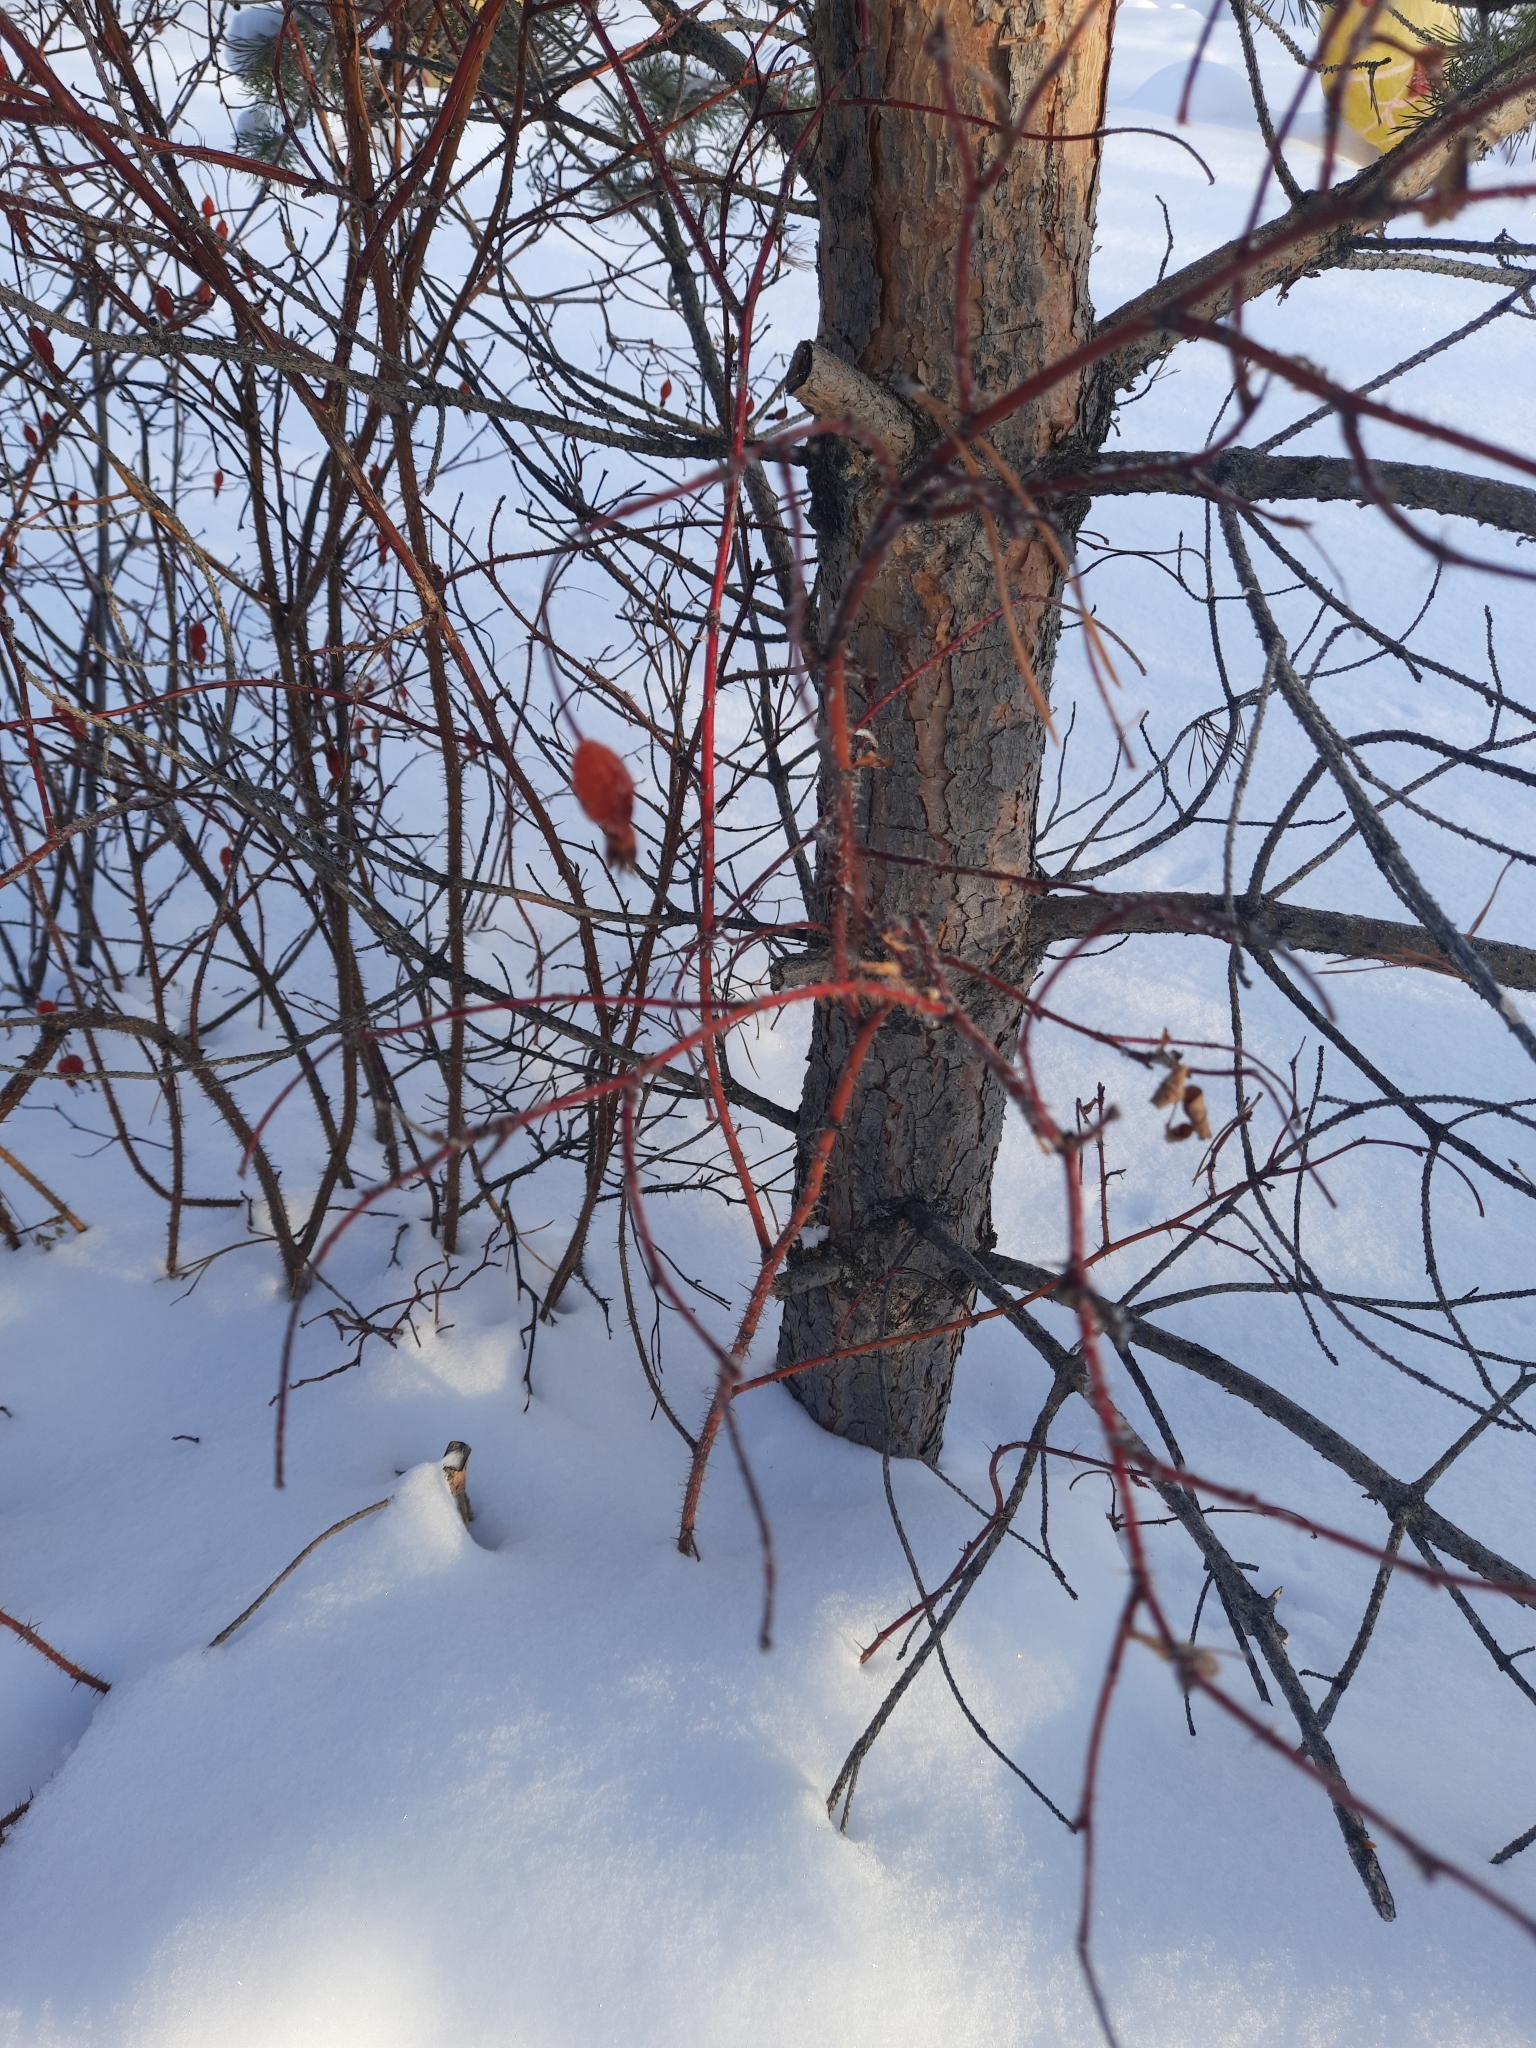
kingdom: Plantae
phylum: Tracheophyta
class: Magnoliopsida
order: Rosales
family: Rosaceae
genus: Rosa
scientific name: Rosa acicularis
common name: Prickly rose
